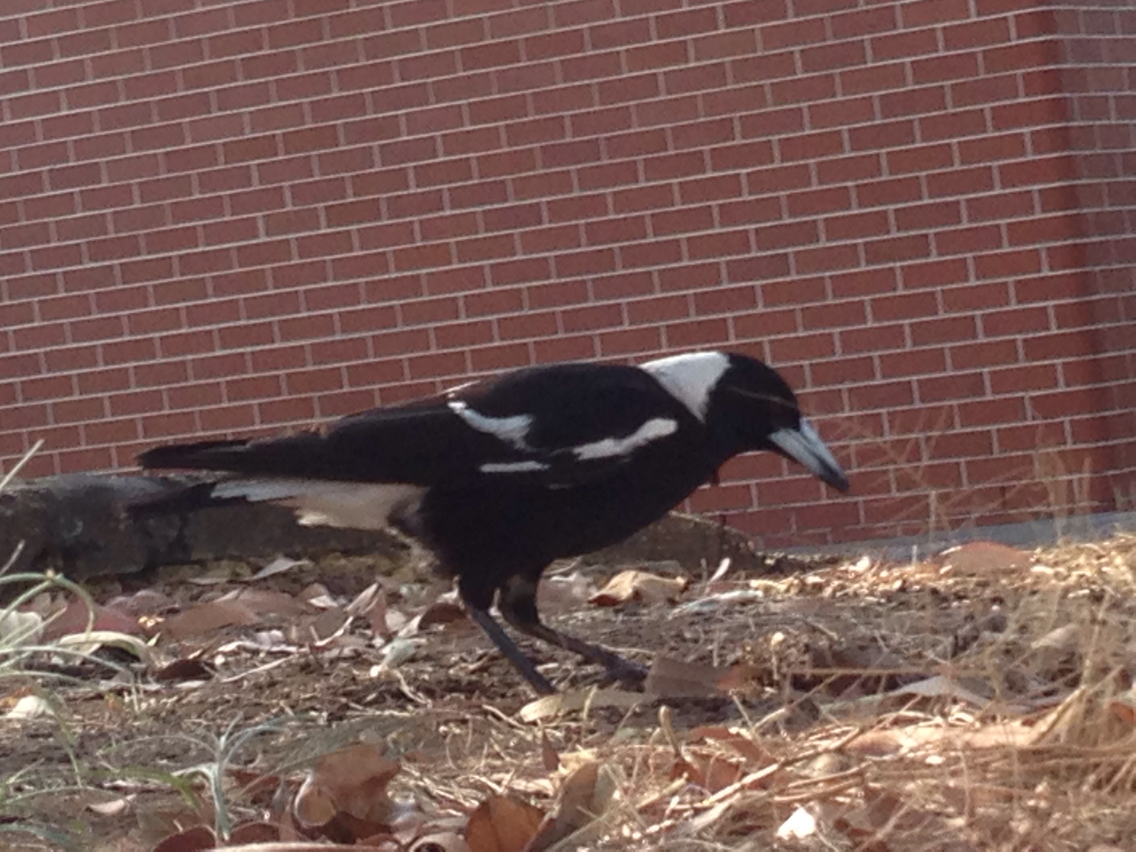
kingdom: Animalia
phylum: Chordata
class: Aves
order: Passeriformes
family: Cracticidae
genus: Gymnorhina
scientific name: Gymnorhina tibicen
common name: Australian magpie
